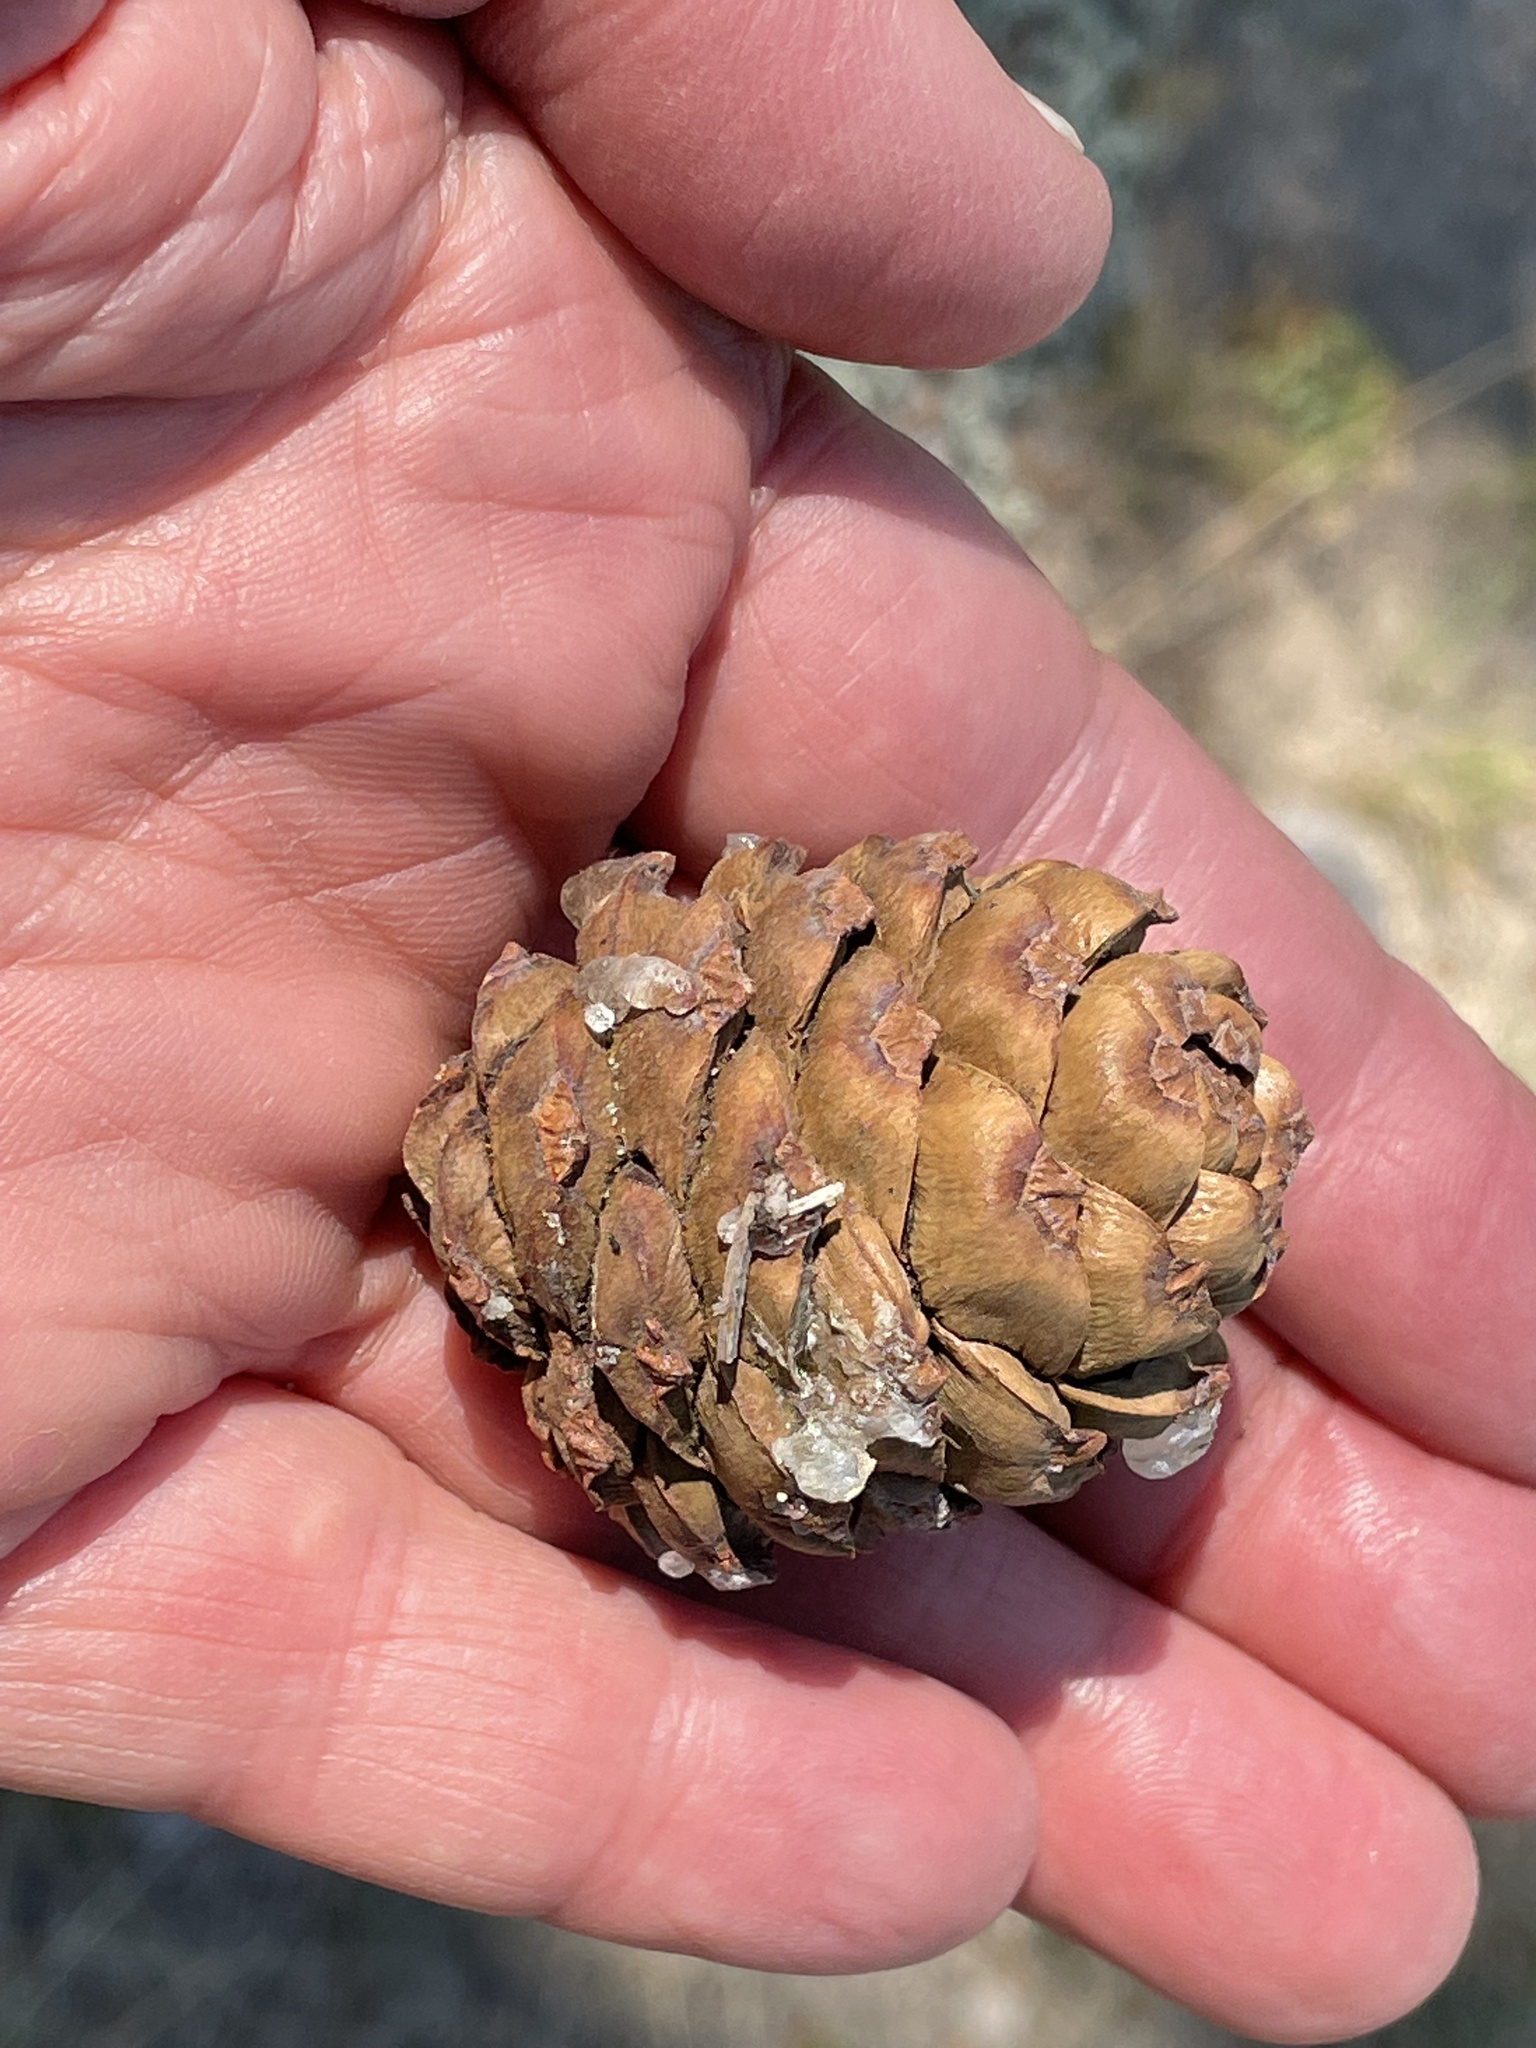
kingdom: Plantae
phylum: Tracheophyta
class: Pinopsida
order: Pinales
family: Pinaceae
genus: Pinus
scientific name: Pinus albicaulis
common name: Whitebark pine
